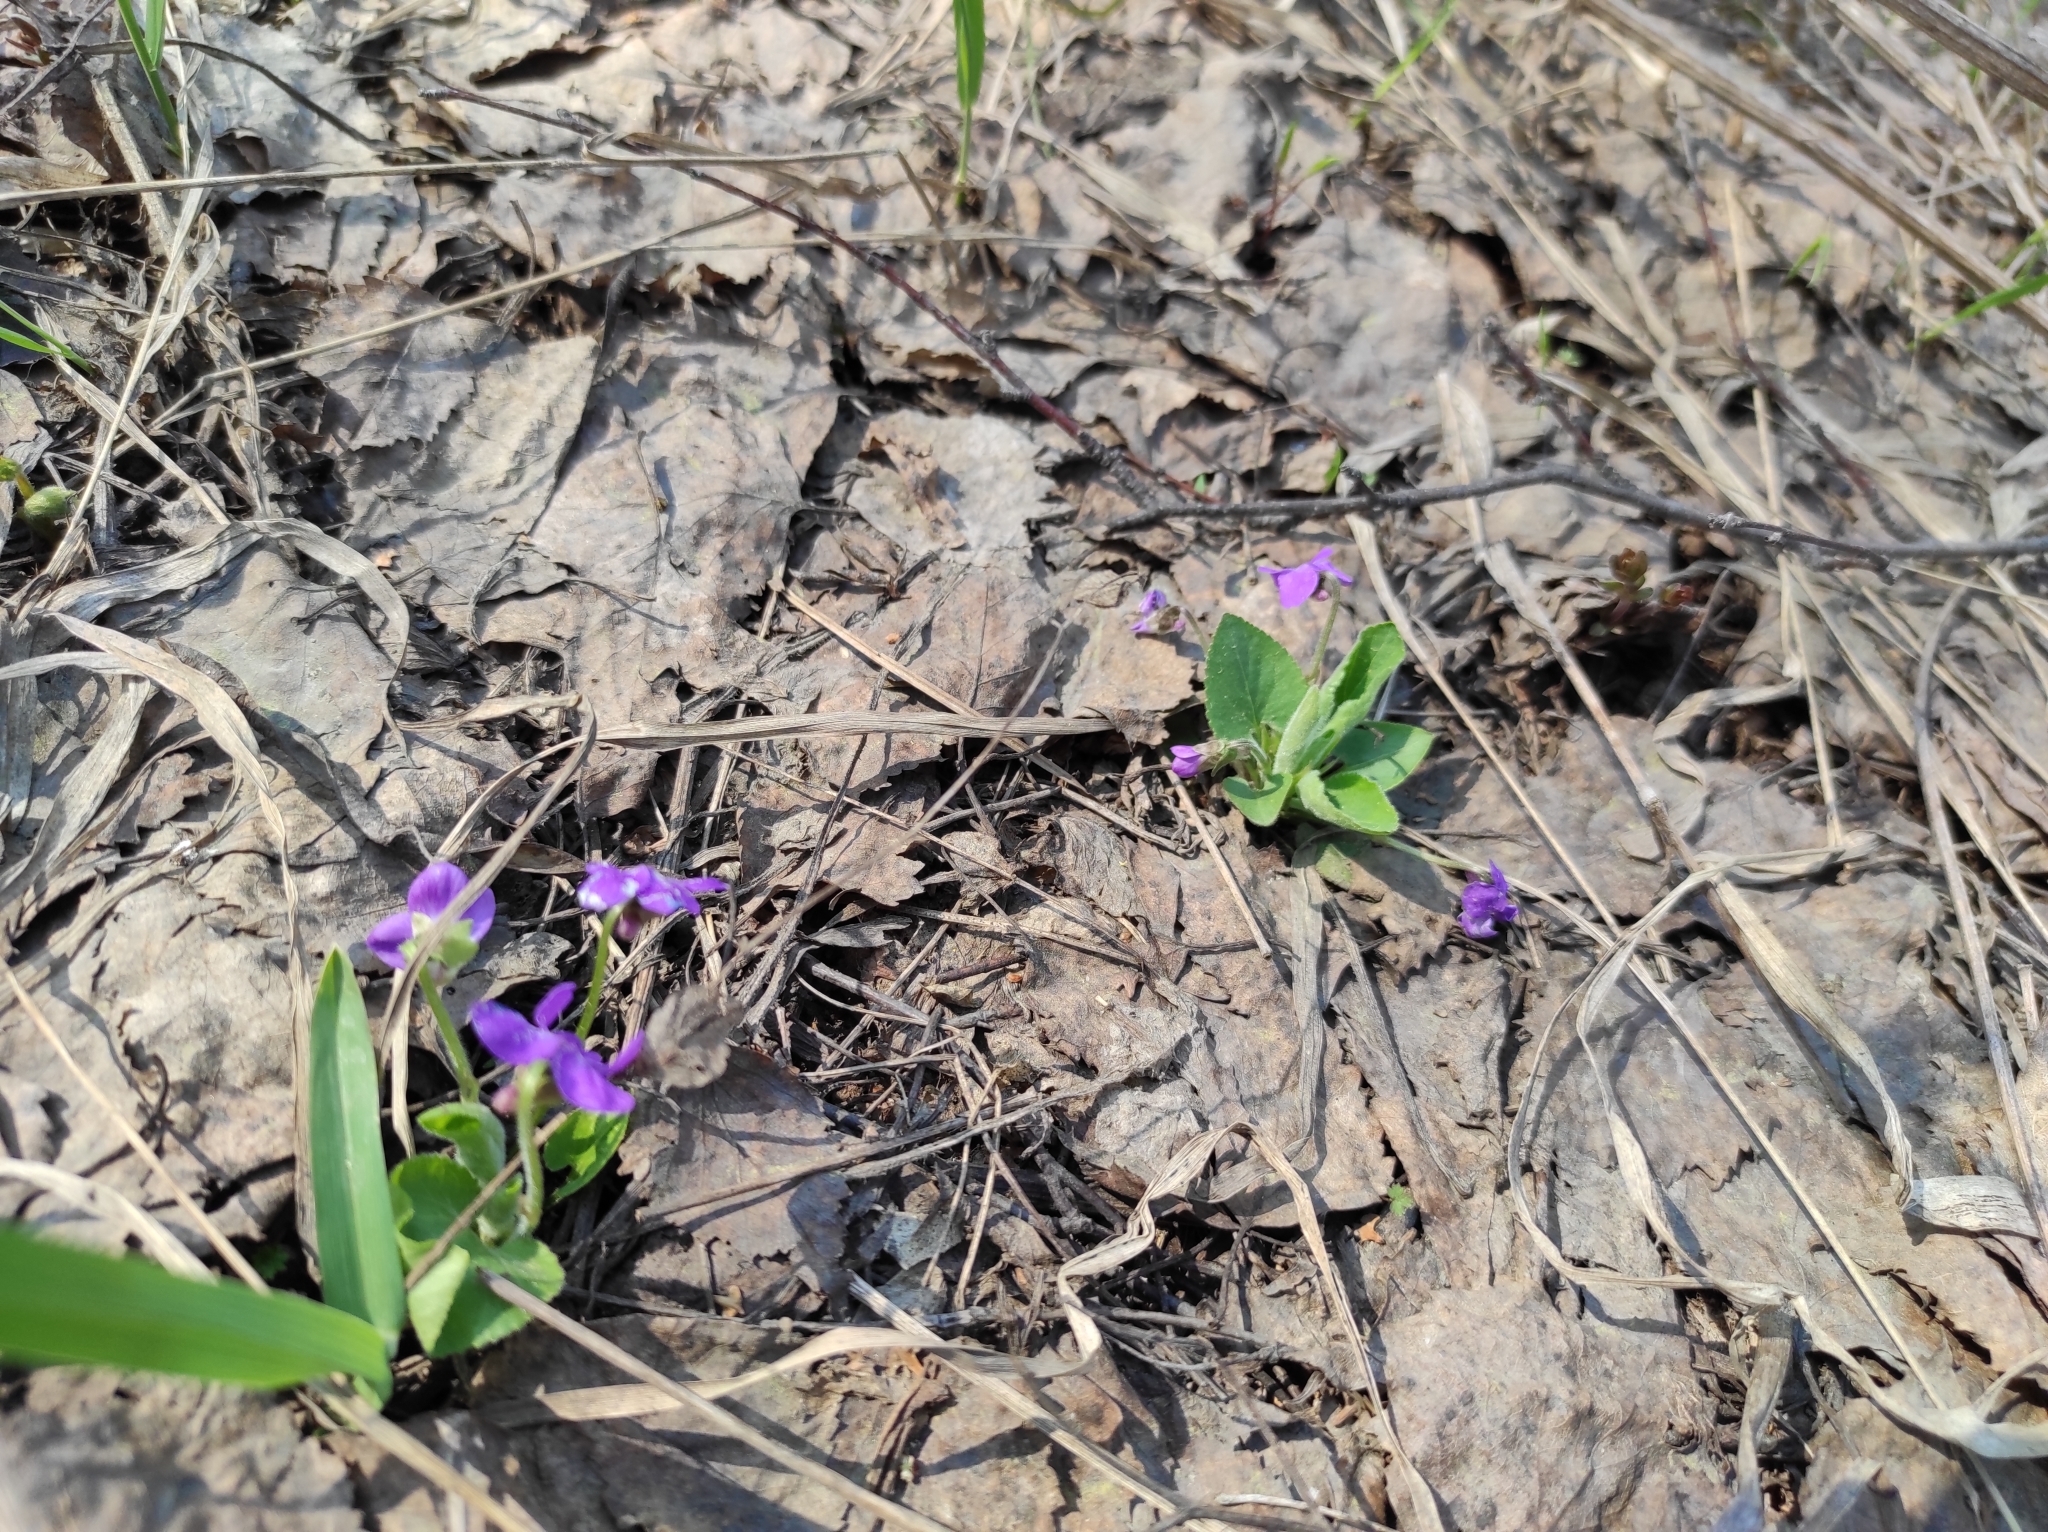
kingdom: Plantae
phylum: Tracheophyta
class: Magnoliopsida
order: Malpighiales
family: Violaceae
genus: Viola
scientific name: Viola hirta
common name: Hairy violet
